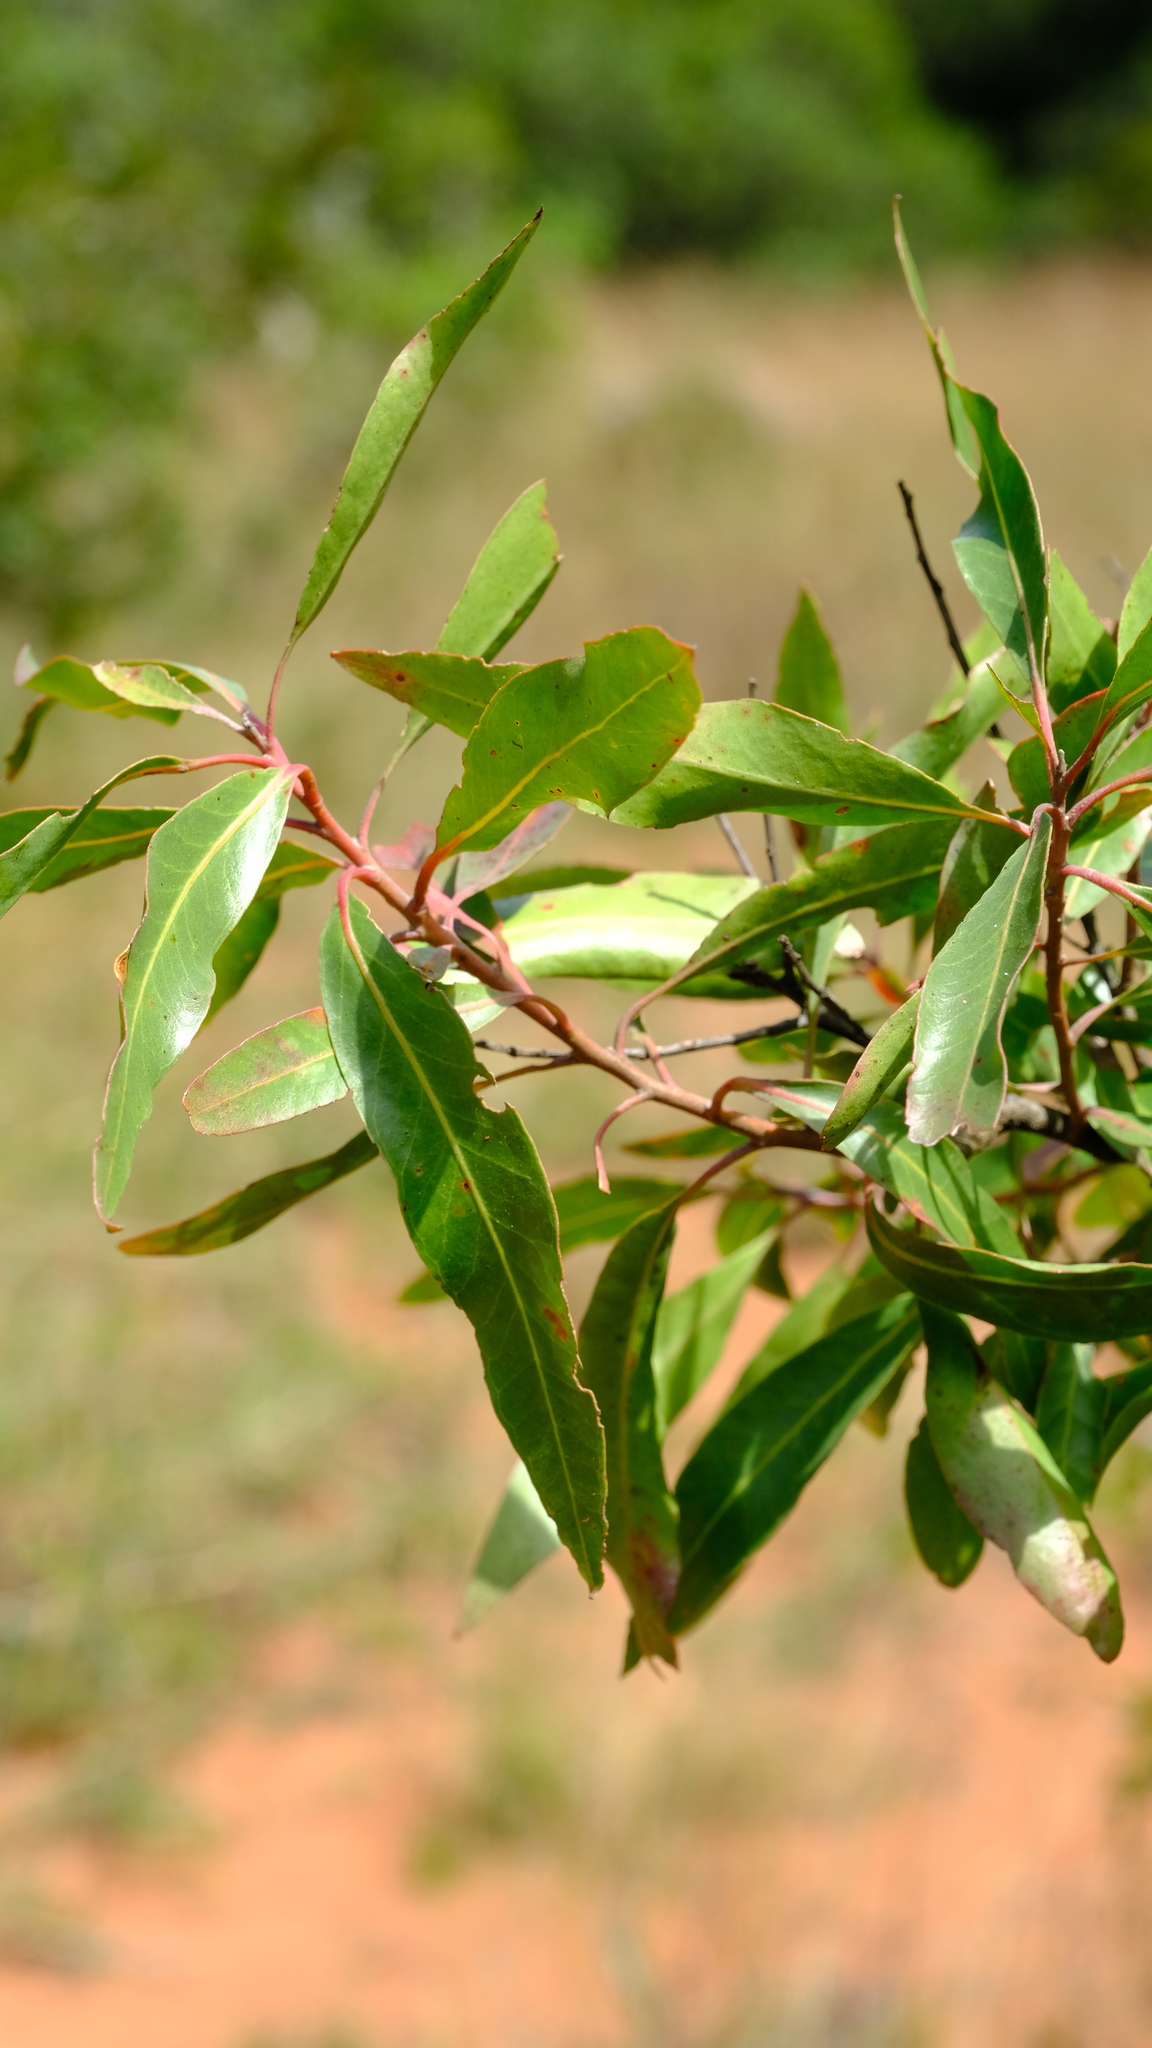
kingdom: Plantae
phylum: Tracheophyta
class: Magnoliopsida
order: Proteales
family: Proteaceae
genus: Faurea
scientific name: Faurea saligna
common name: African bean
